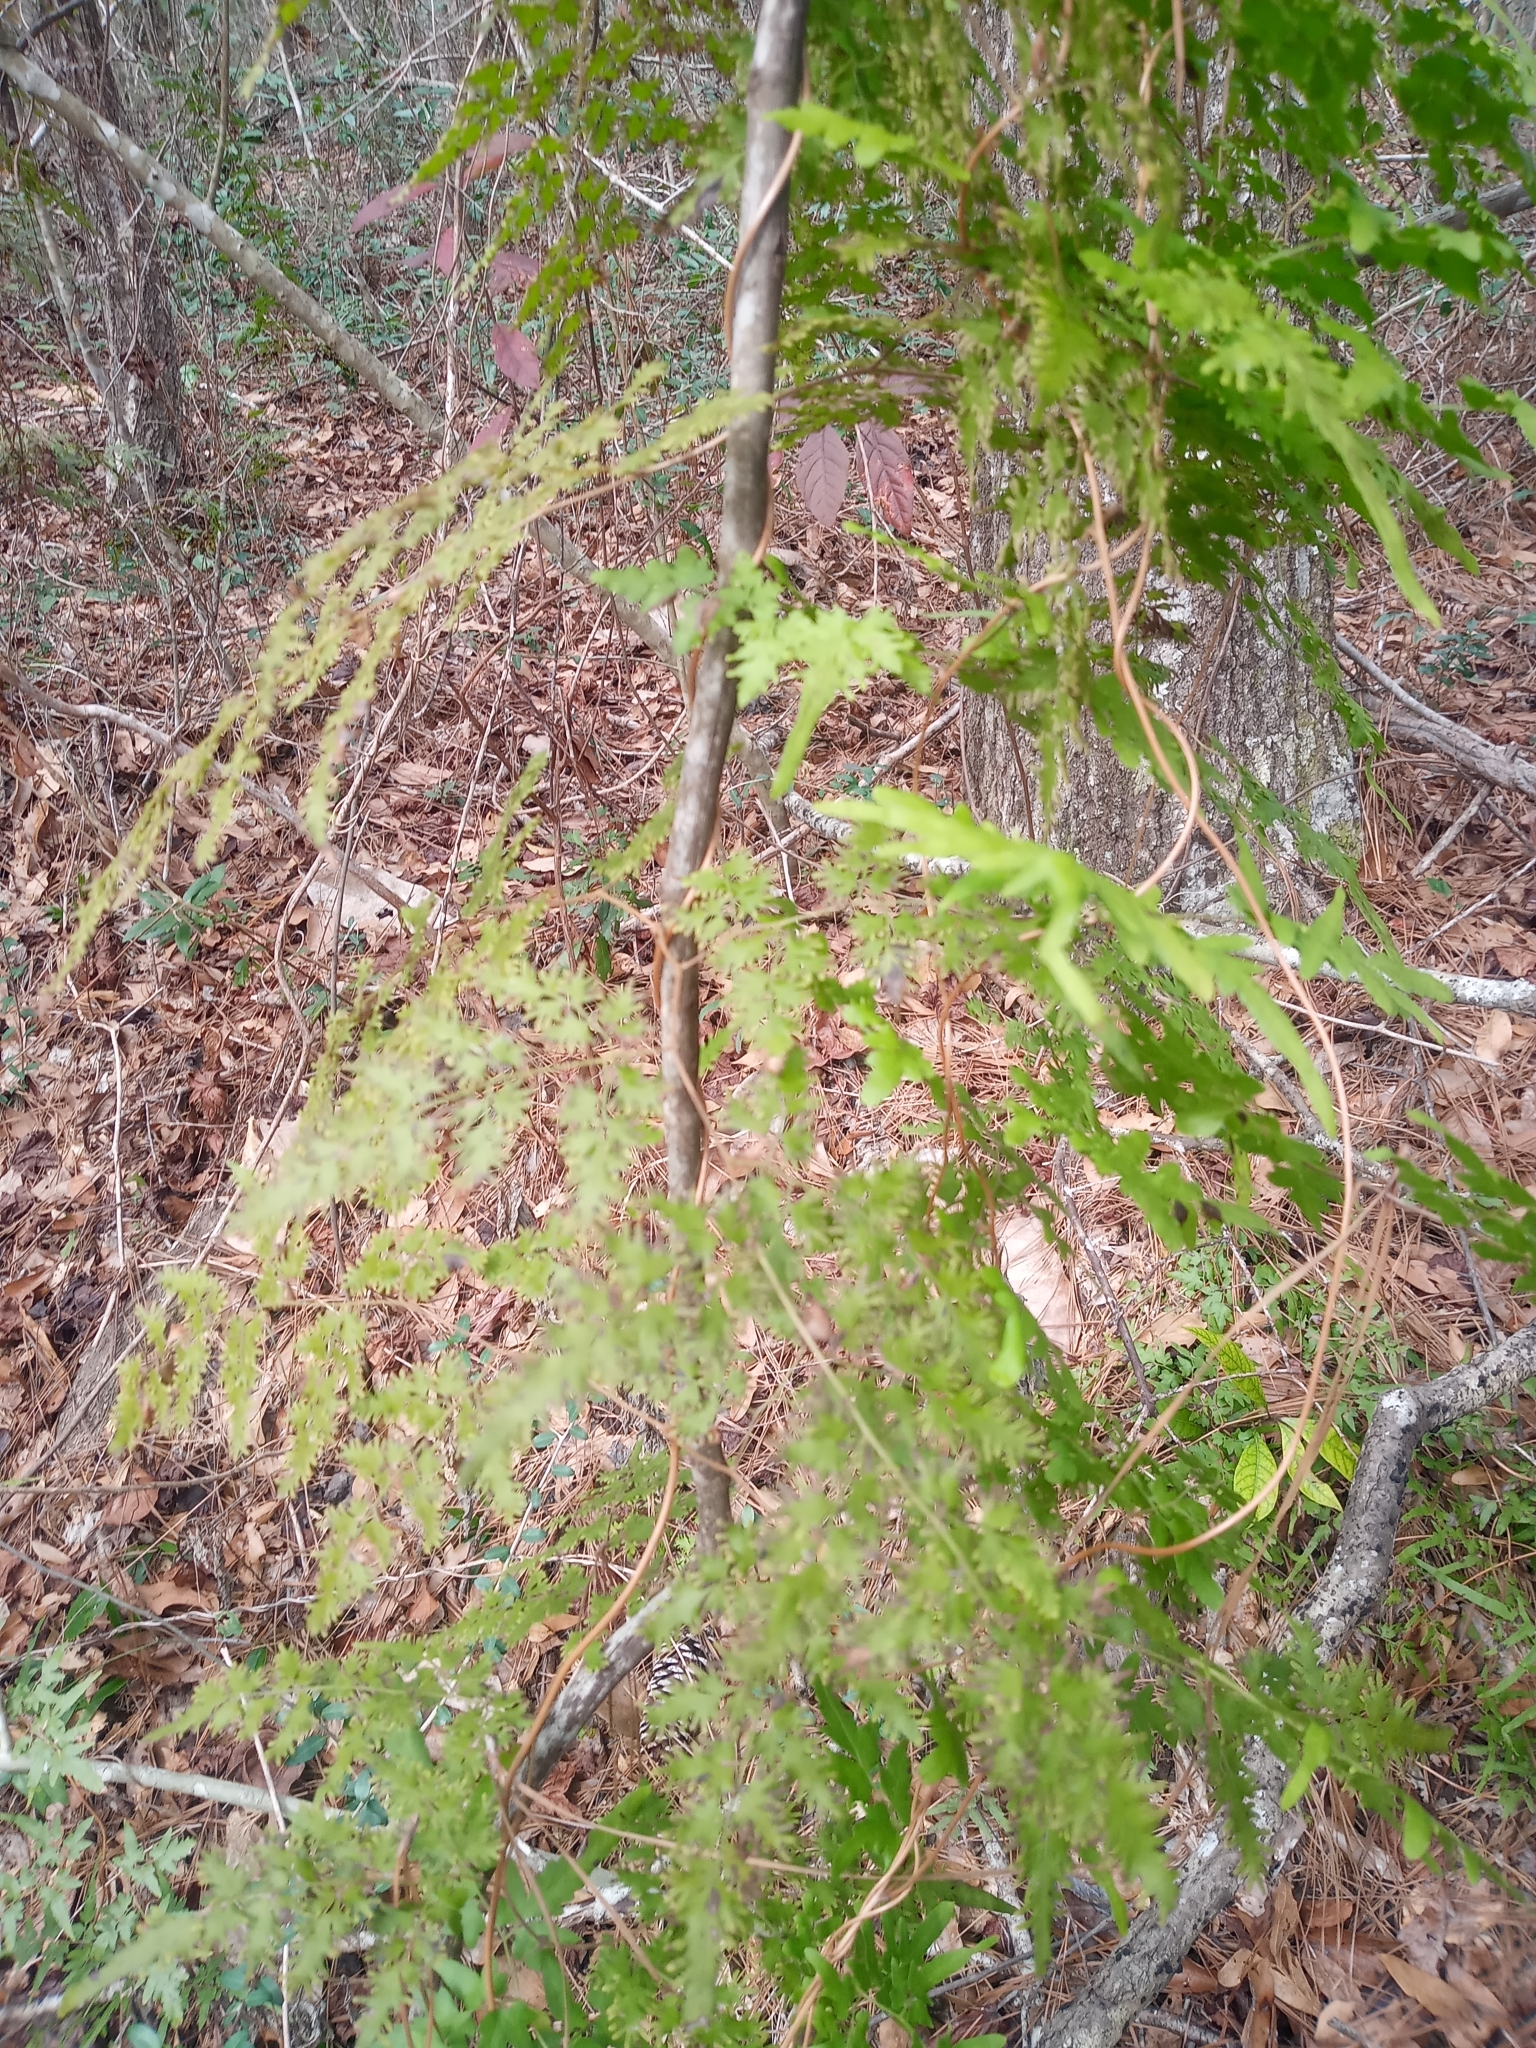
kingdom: Plantae
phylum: Tracheophyta
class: Polypodiopsida
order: Schizaeales
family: Lygodiaceae
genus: Lygodium
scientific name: Lygodium japonicum
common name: Japanese climbing fern
